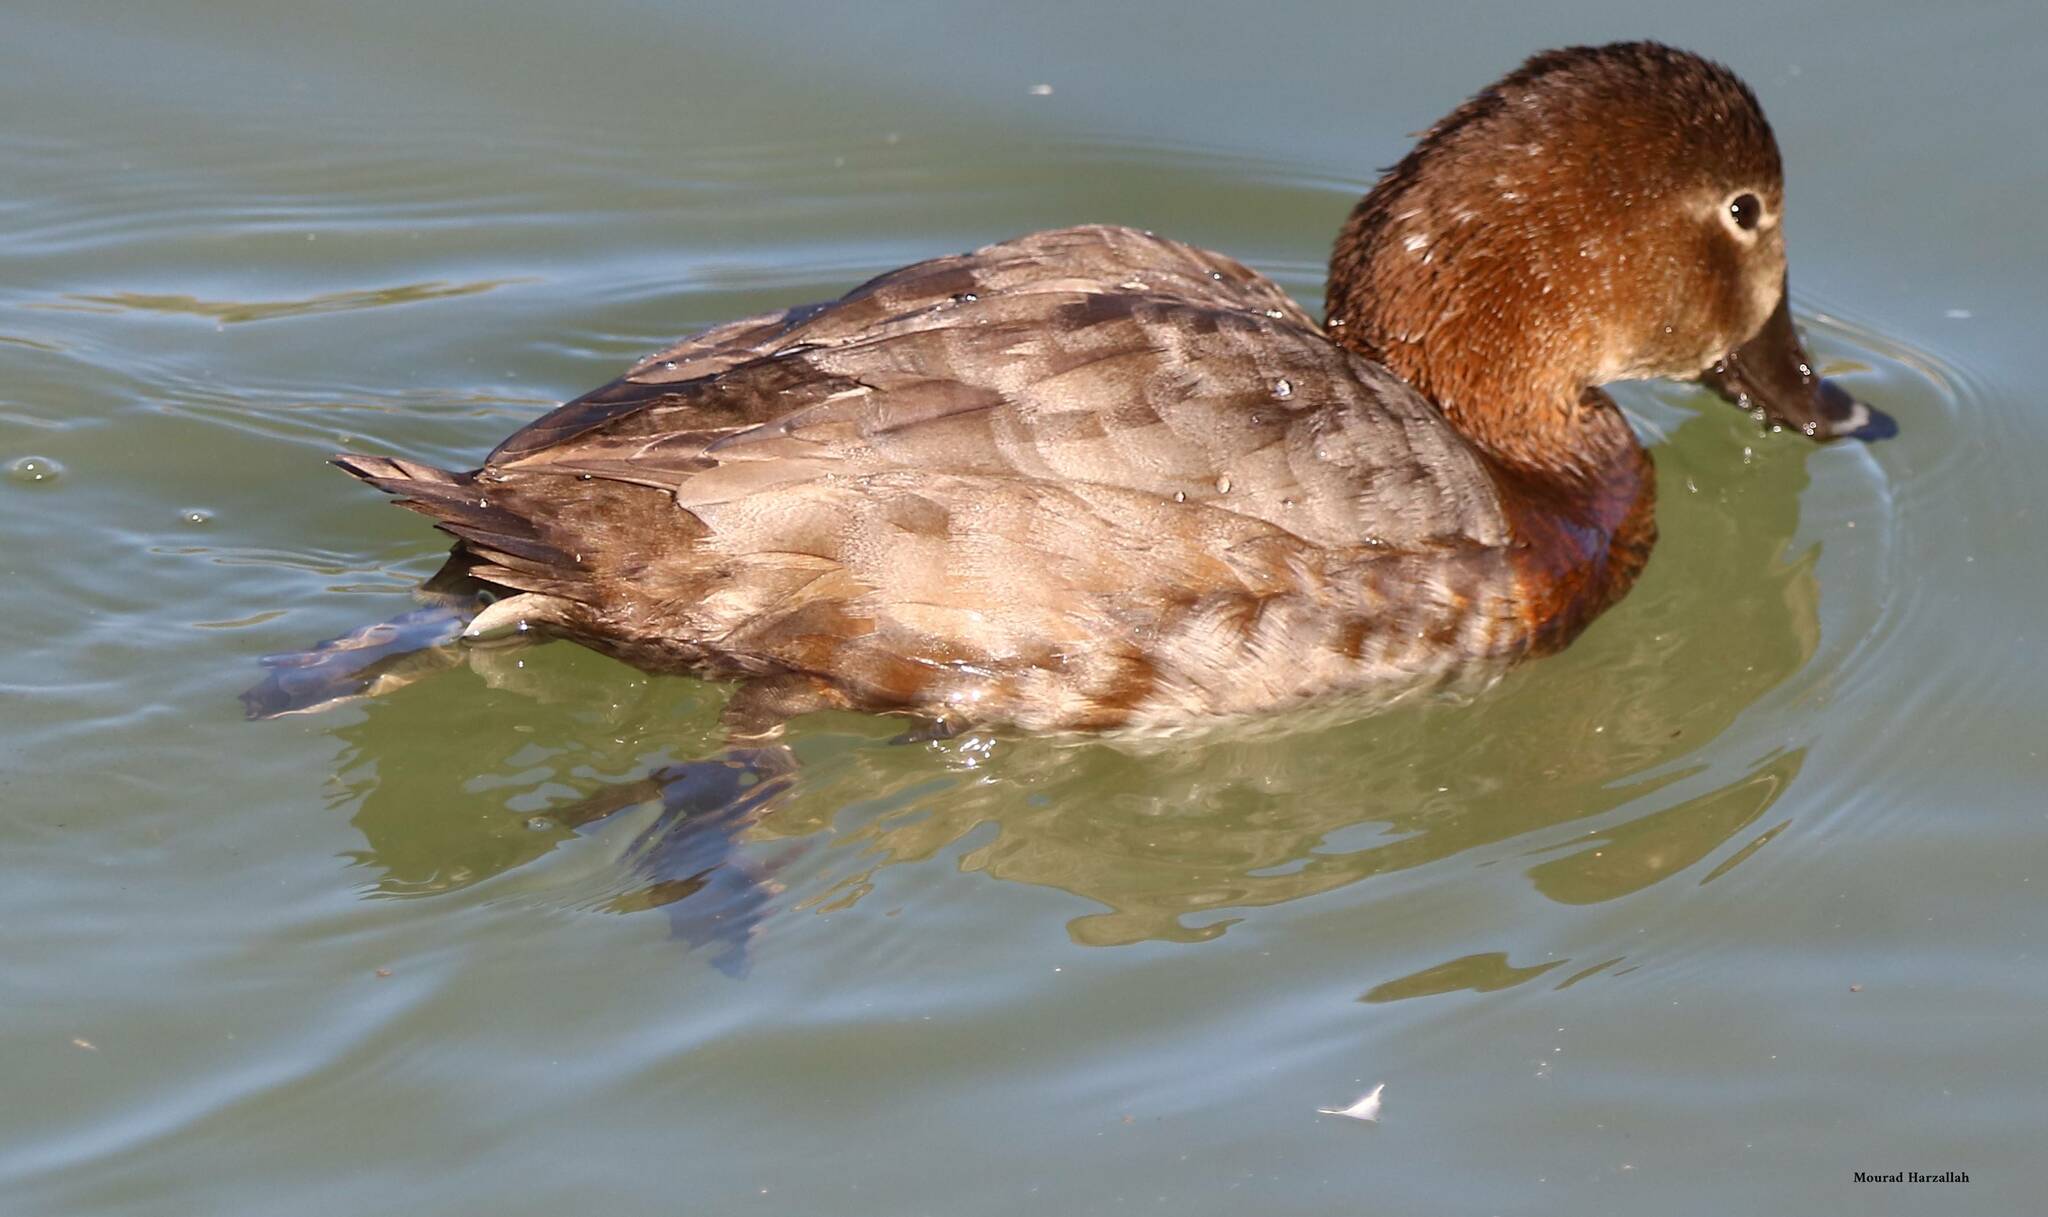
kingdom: Animalia
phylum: Chordata
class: Aves
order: Anseriformes
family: Anatidae
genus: Aythya
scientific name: Aythya ferina
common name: Common pochard
